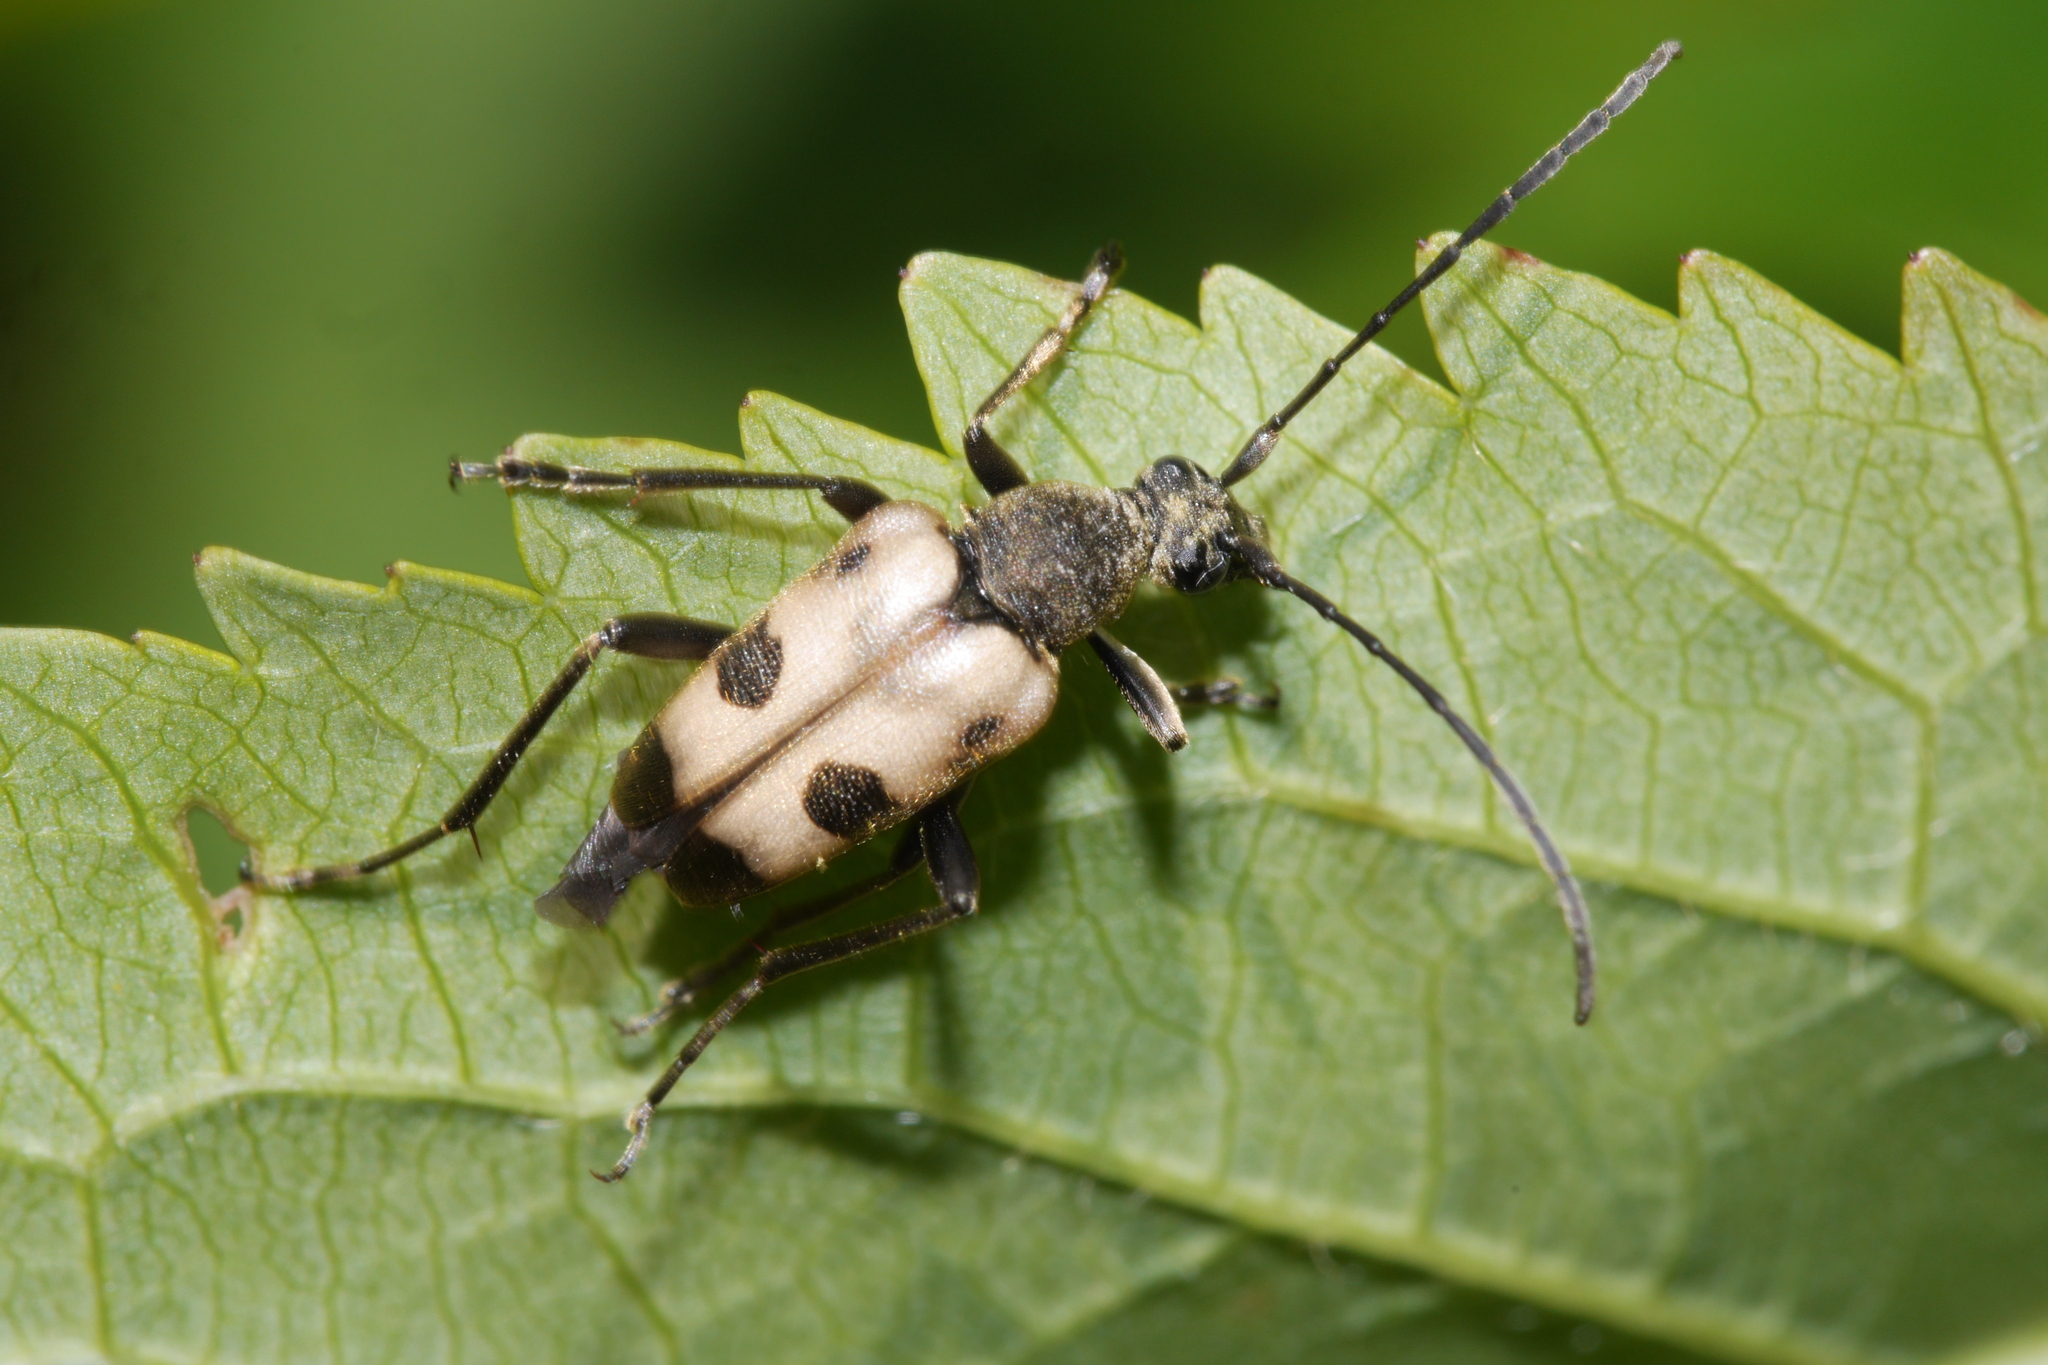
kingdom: Animalia
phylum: Arthropoda
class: Insecta
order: Coleoptera
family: Cerambycidae
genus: Pachytodes
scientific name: Pachytodes cerambyciformis
